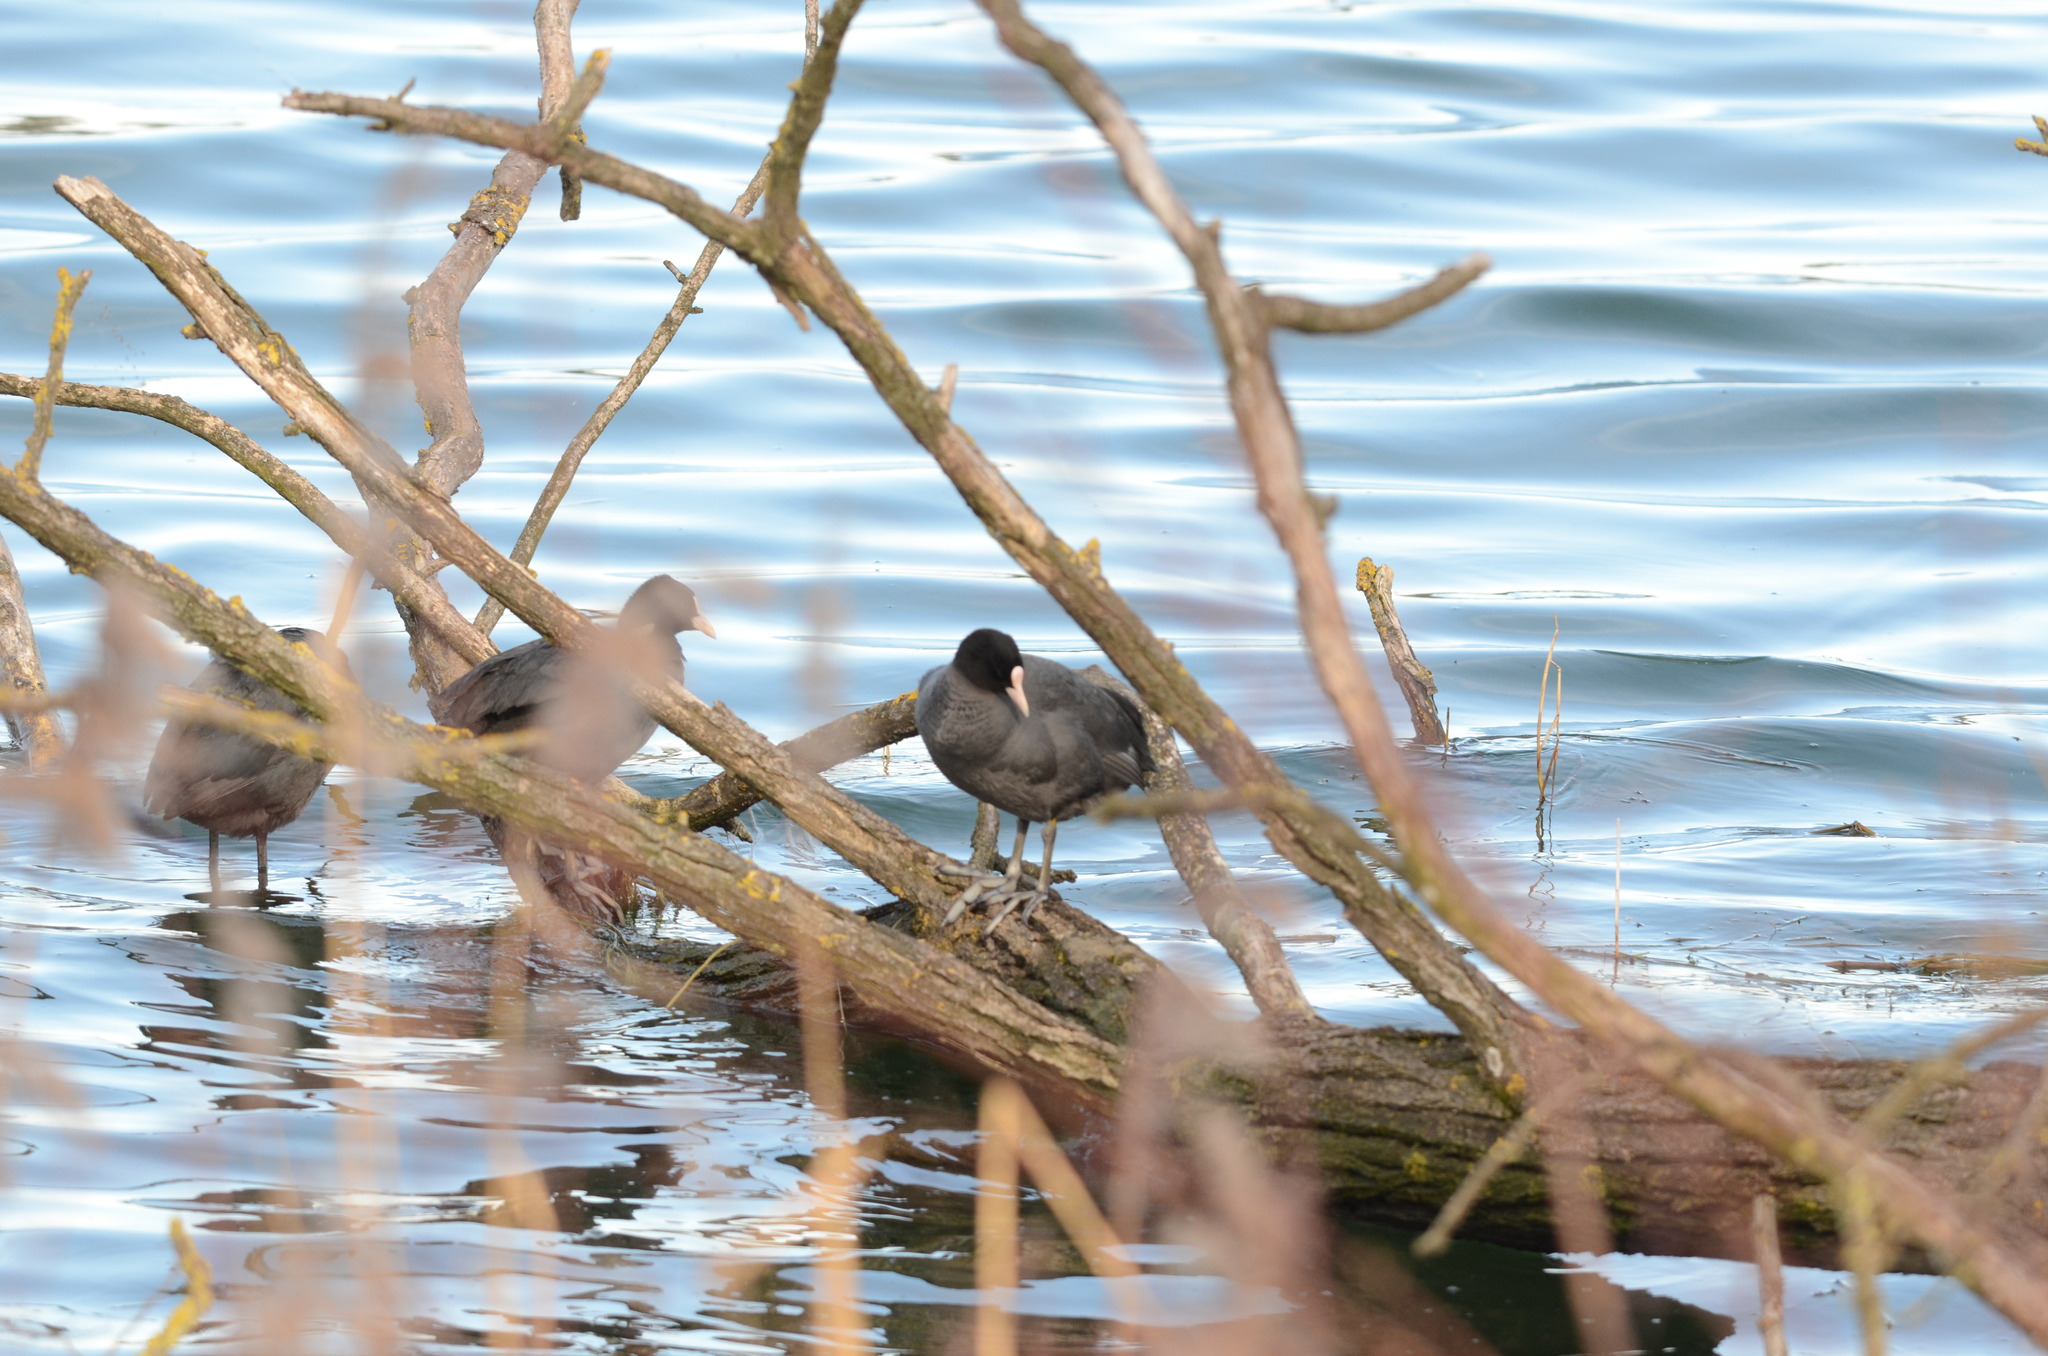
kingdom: Animalia
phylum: Chordata
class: Aves
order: Gruiformes
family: Rallidae
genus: Fulica
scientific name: Fulica atra
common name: Eurasian coot
